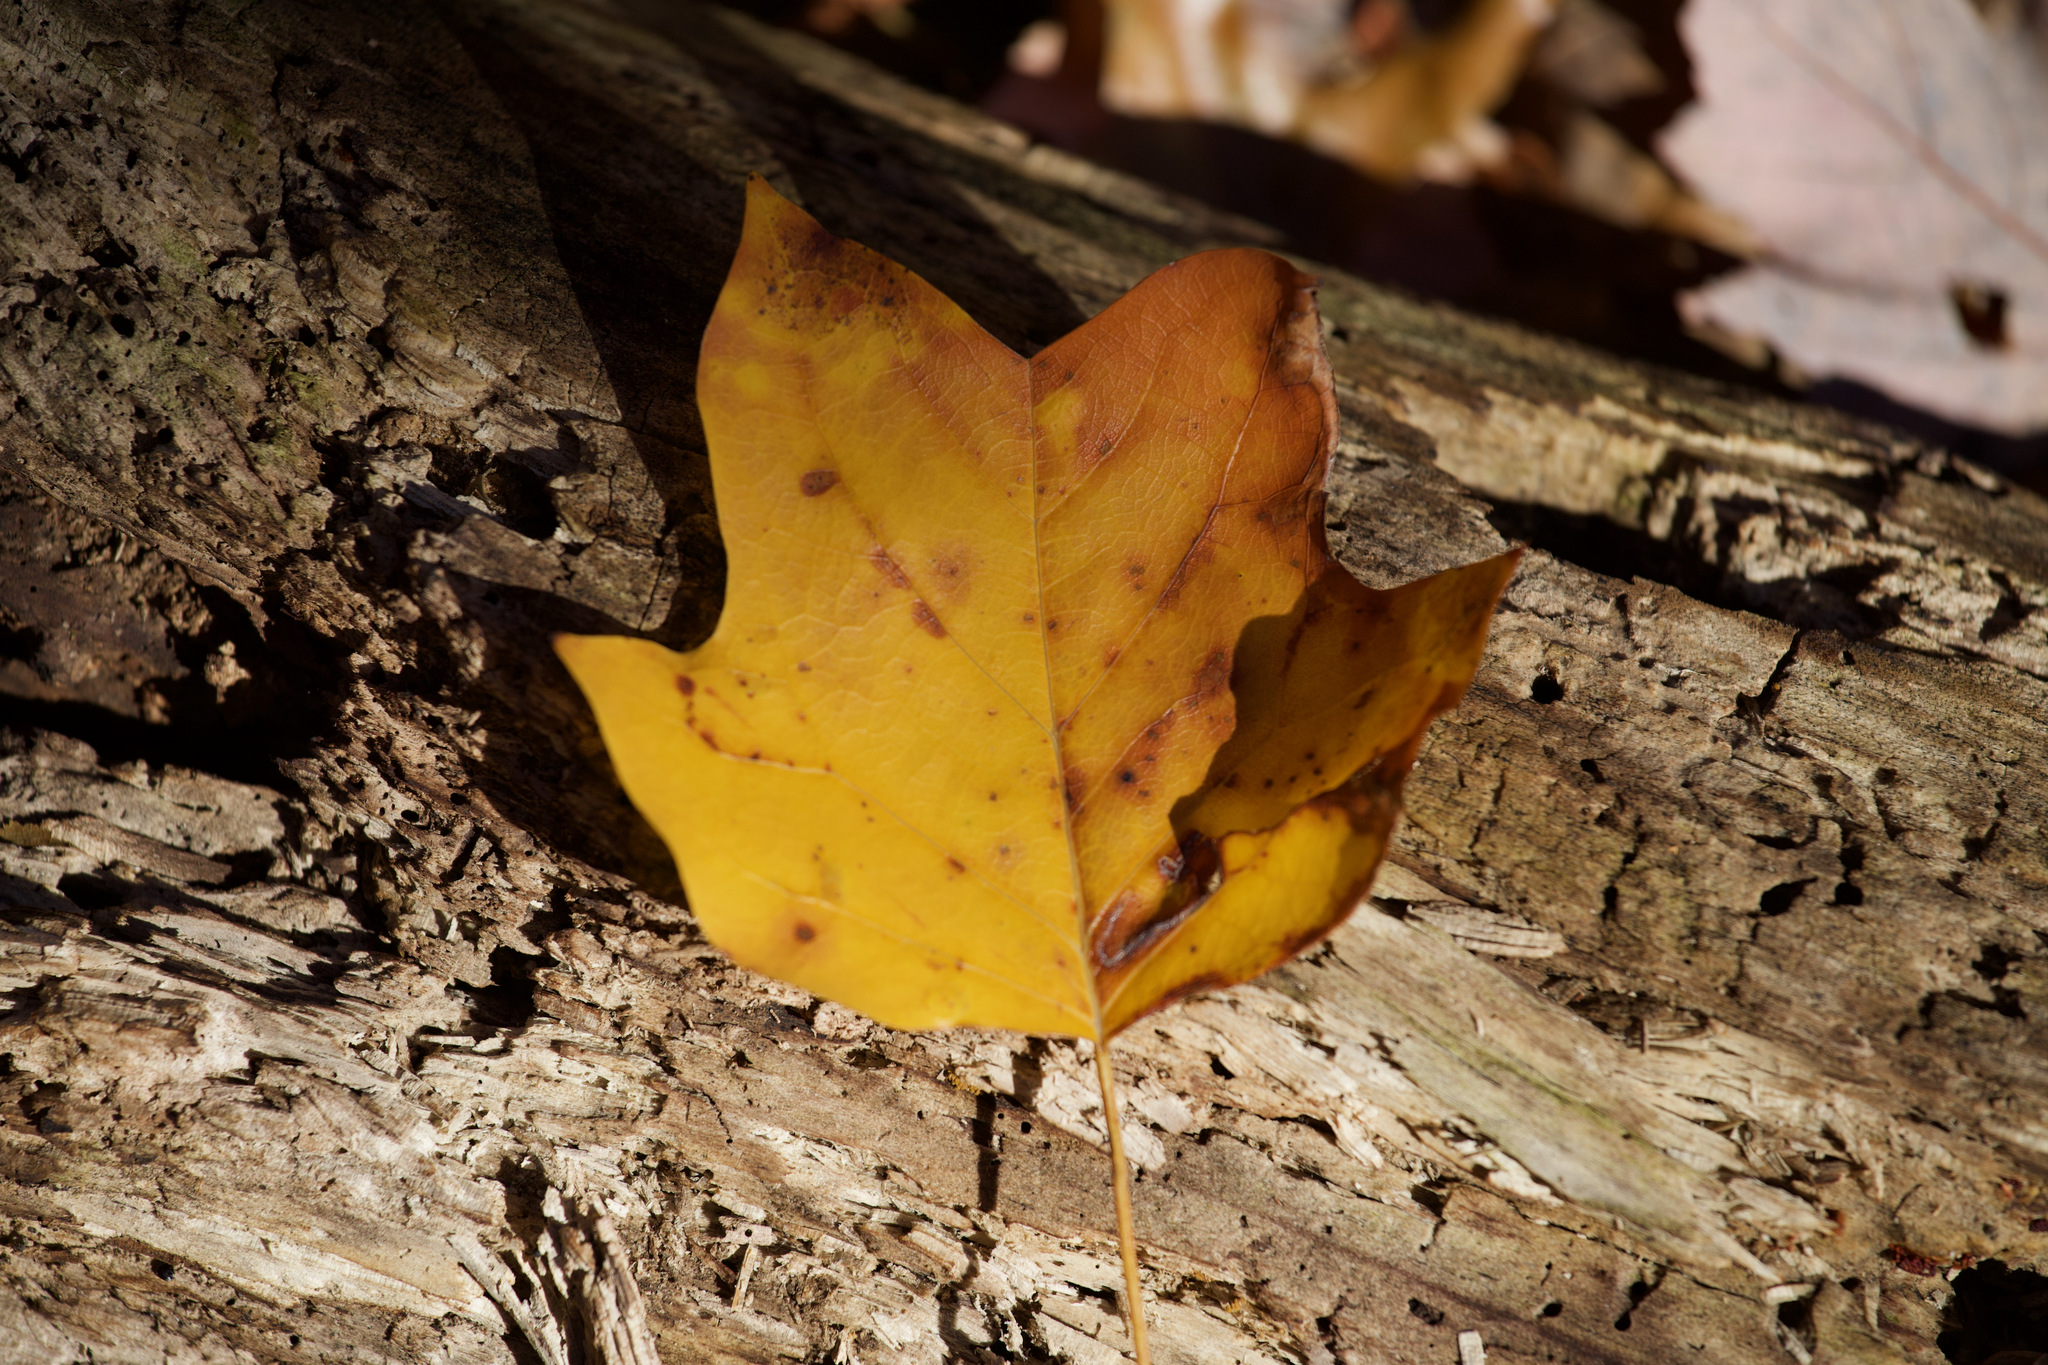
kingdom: Plantae
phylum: Tracheophyta
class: Magnoliopsida
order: Magnoliales
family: Magnoliaceae
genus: Liriodendron
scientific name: Liriodendron tulipifera
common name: Tulip tree
